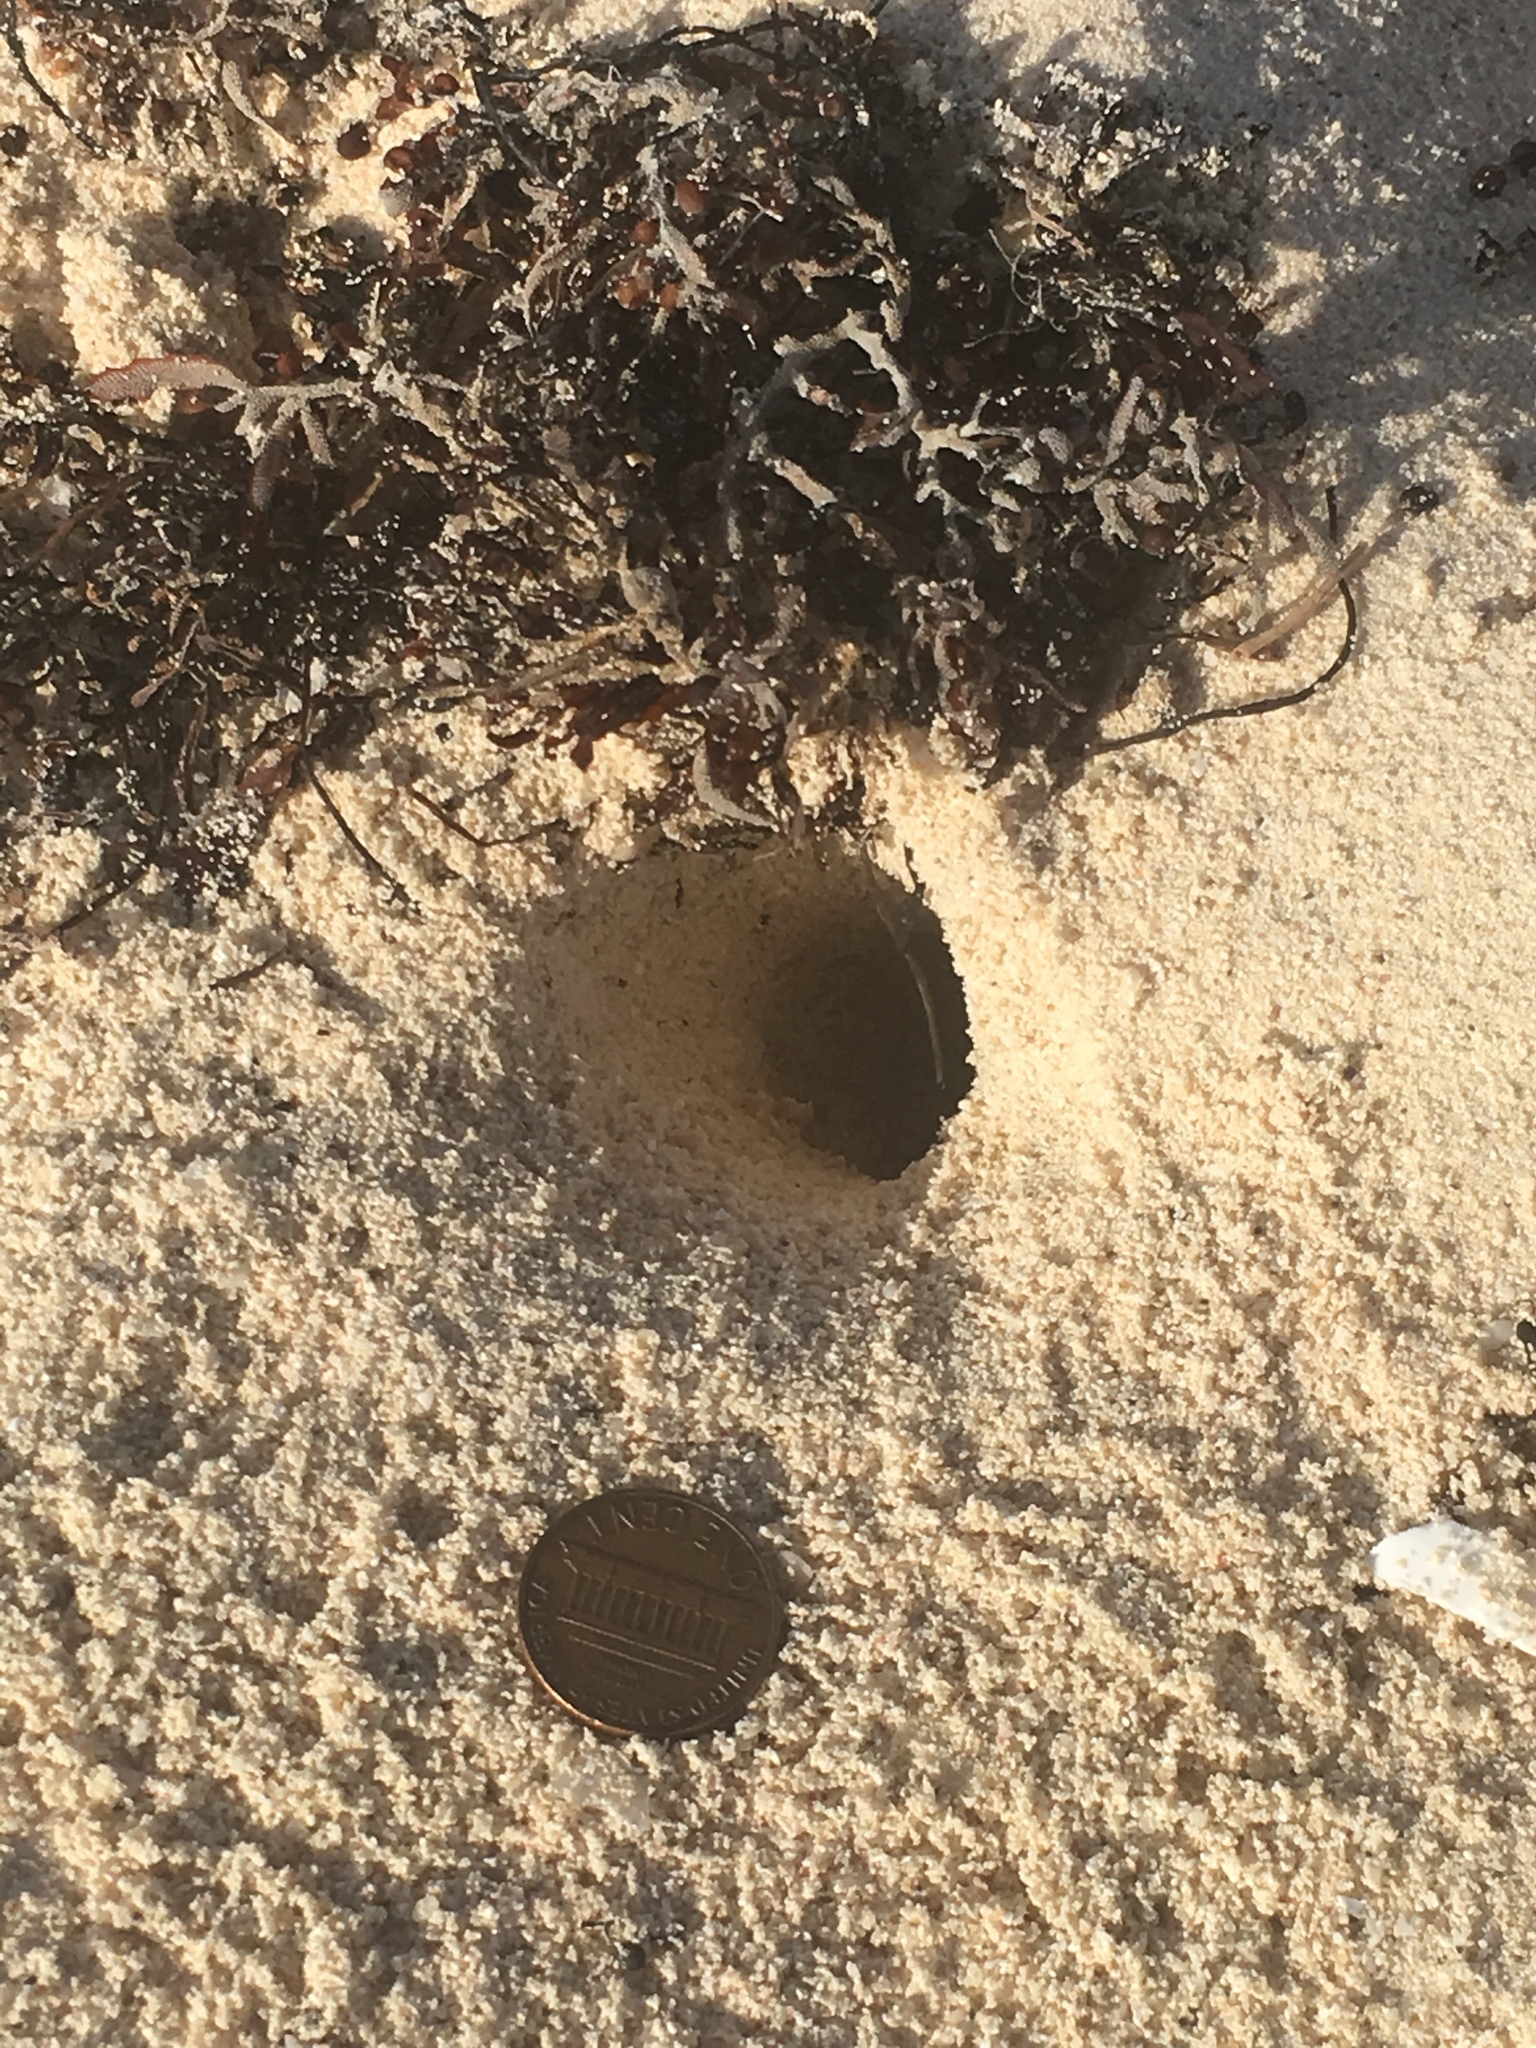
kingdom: Animalia
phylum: Arthropoda
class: Malacostraca
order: Decapoda
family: Ocypodidae
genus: Ocypode
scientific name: Ocypode quadrata
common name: Ghost crab
